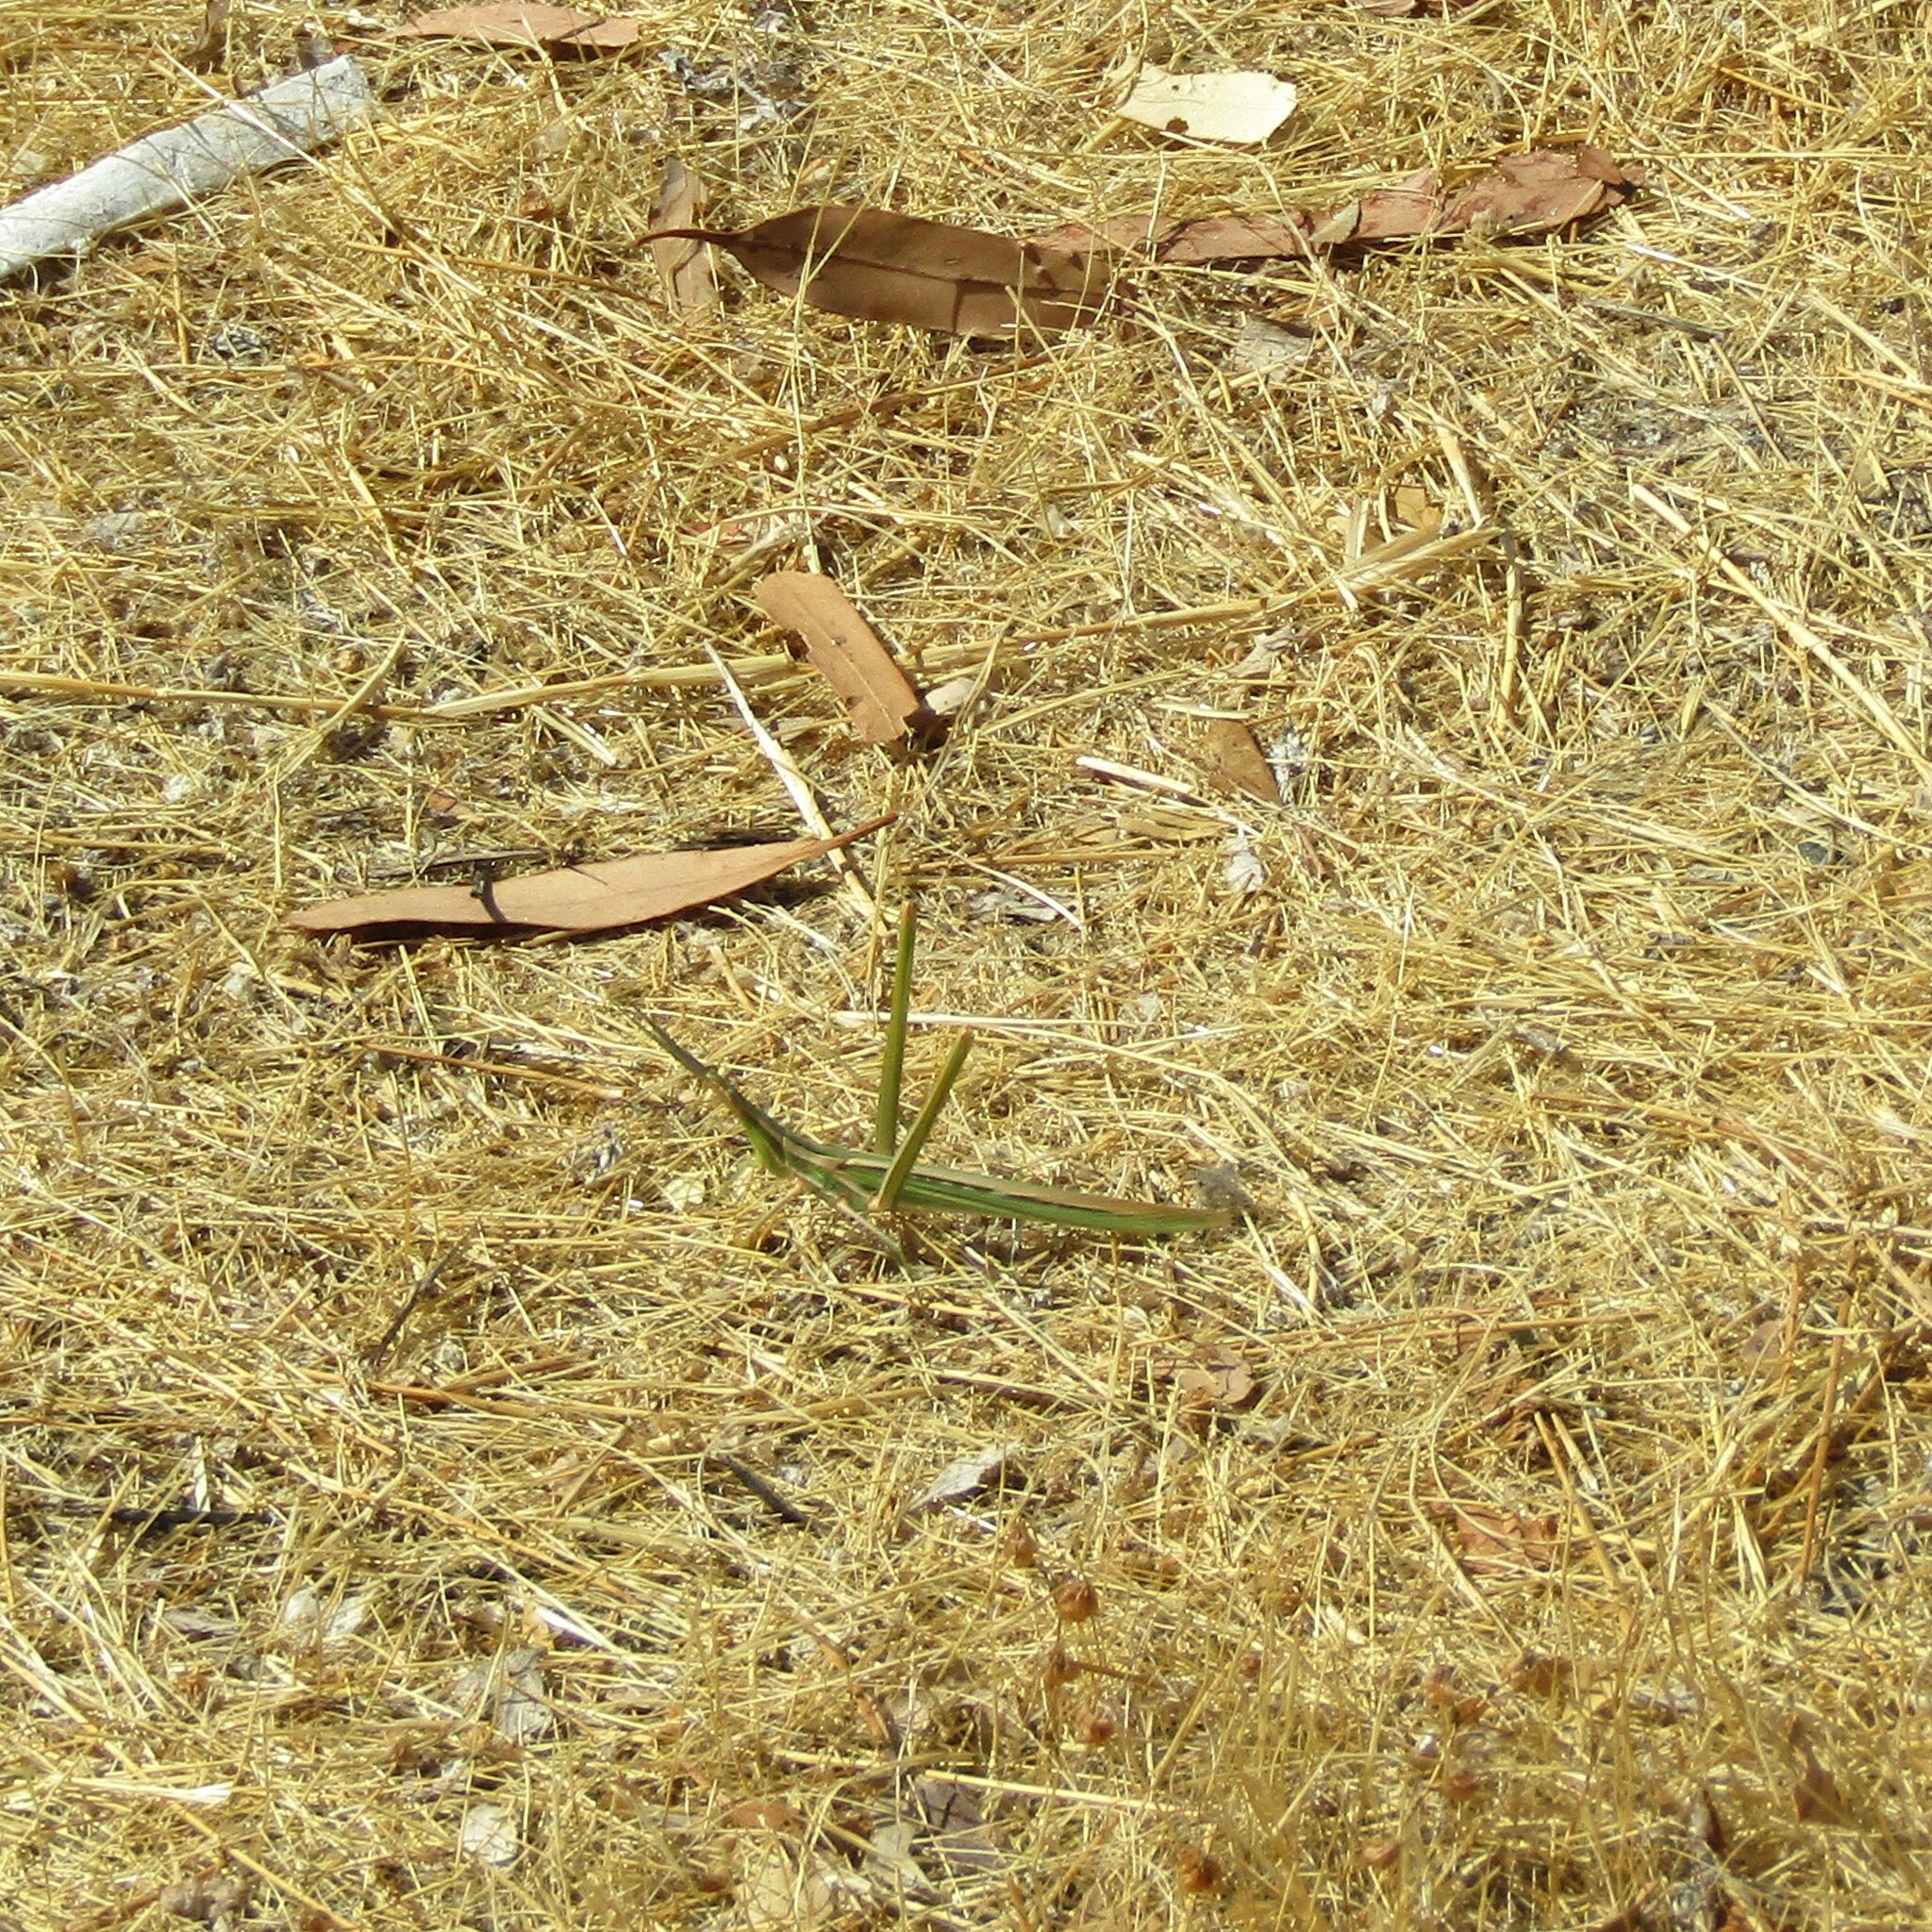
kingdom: Animalia
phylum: Arthropoda
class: Insecta
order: Orthoptera
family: Acrididae
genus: Acrida
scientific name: Acrida conica
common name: Giant green slantface
